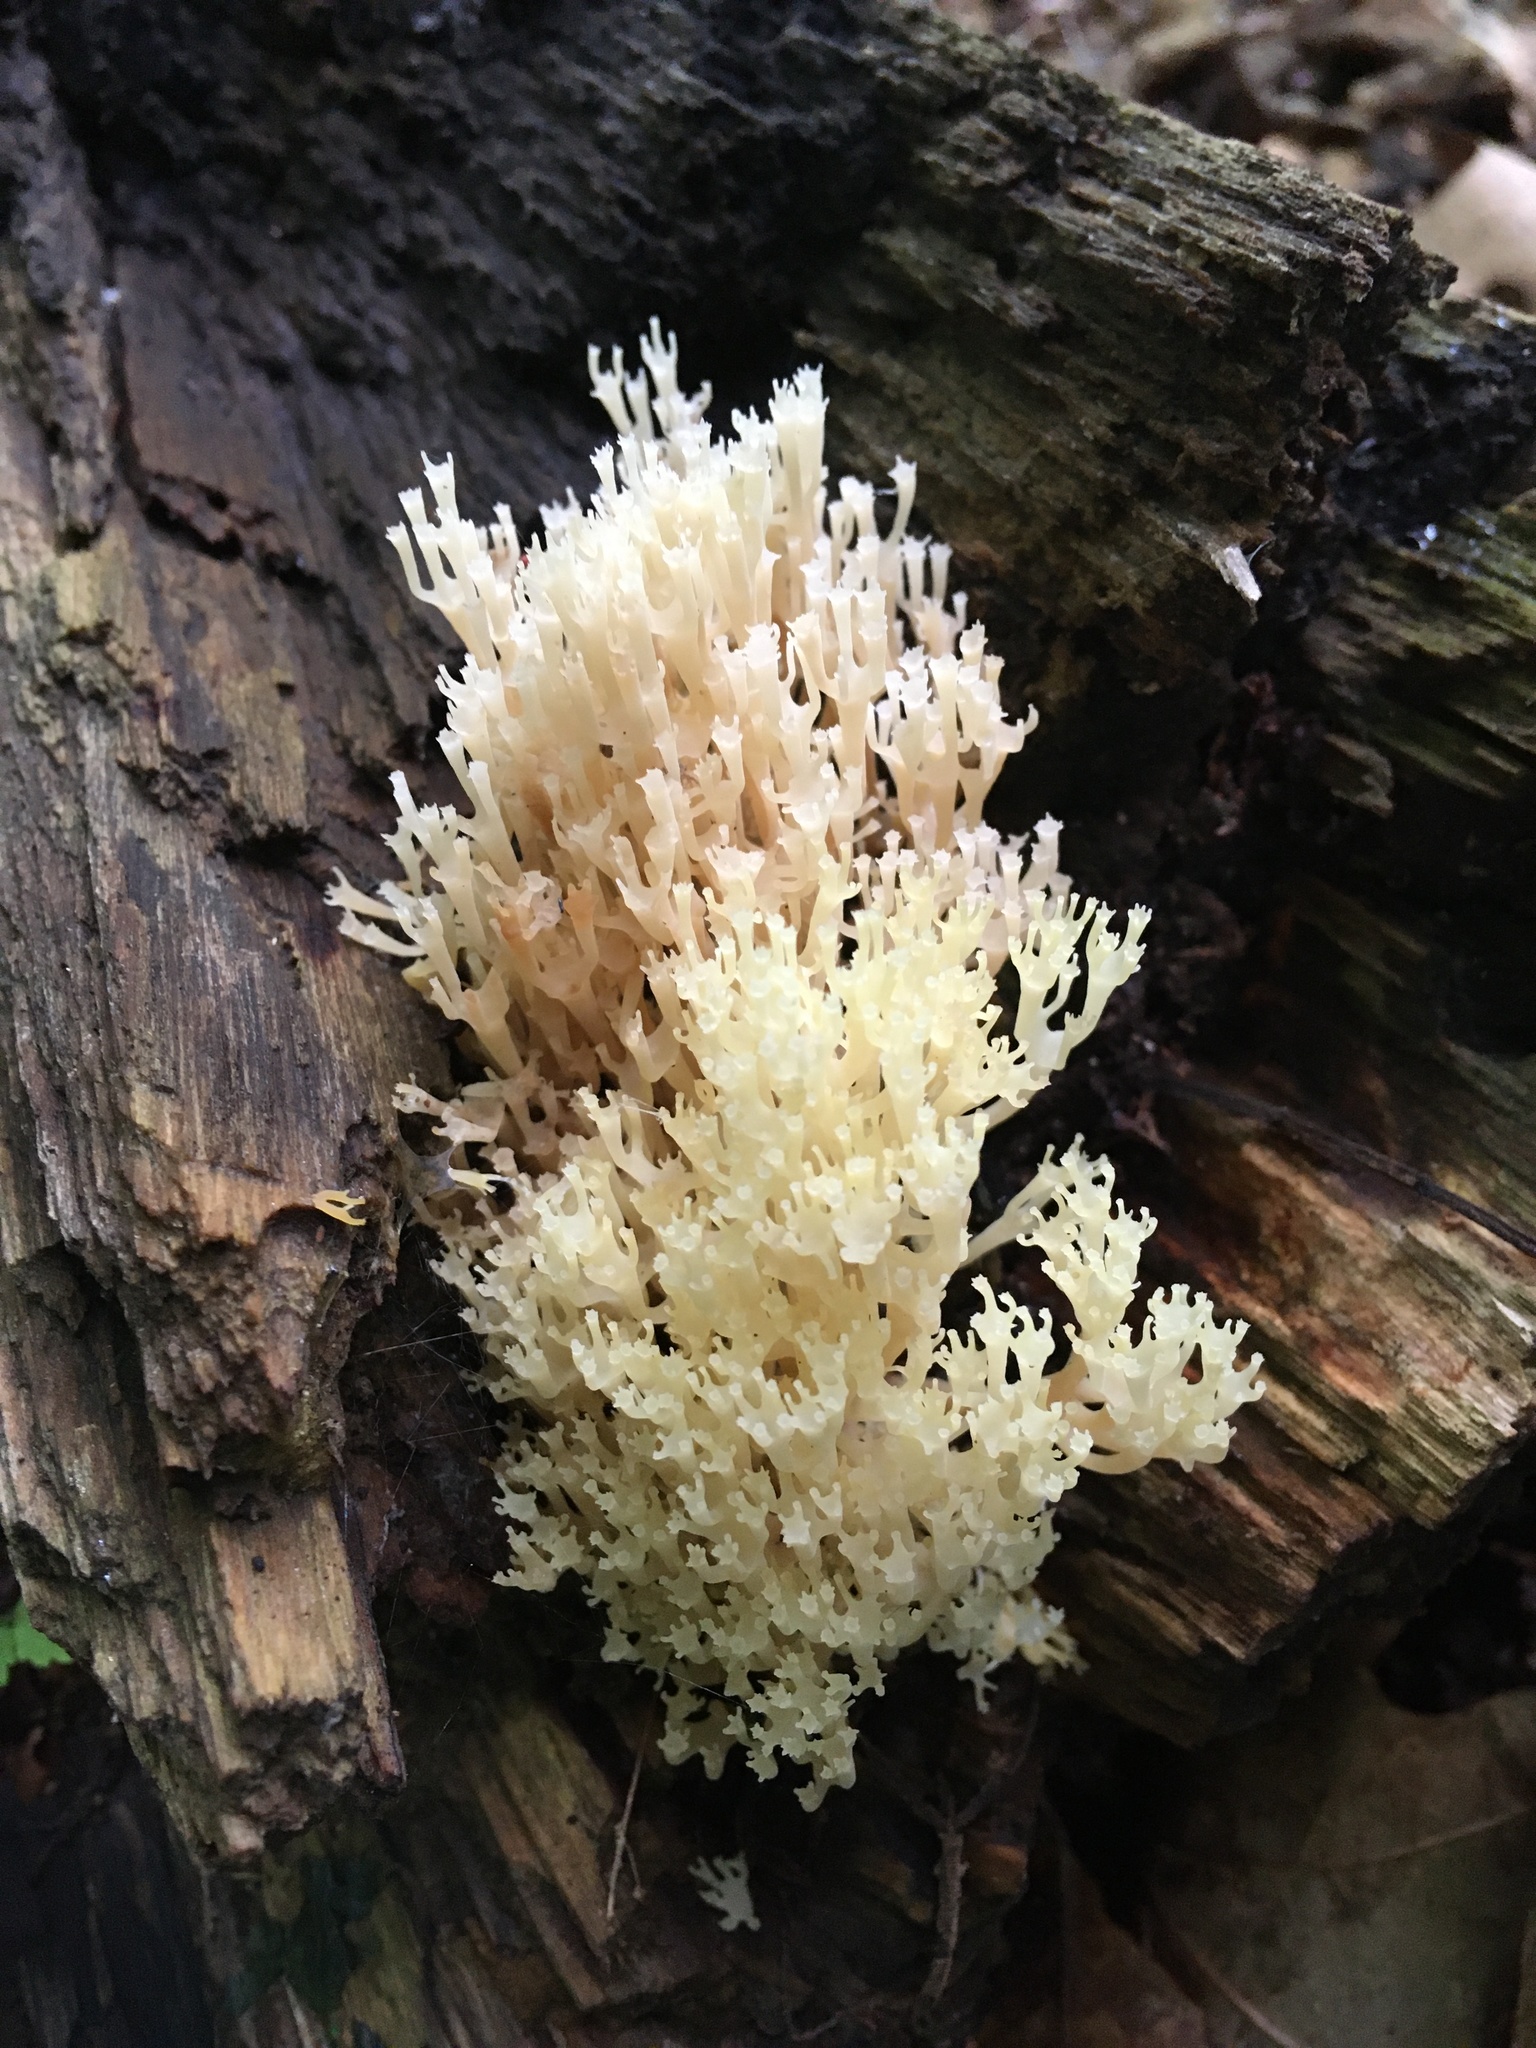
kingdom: Fungi
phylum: Basidiomycota
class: Agaricomycetes
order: Russulales
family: Auriscalpiaceae
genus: Artomyces
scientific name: Artomyces pyxidatus
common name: Crown-tipped coral fungus
